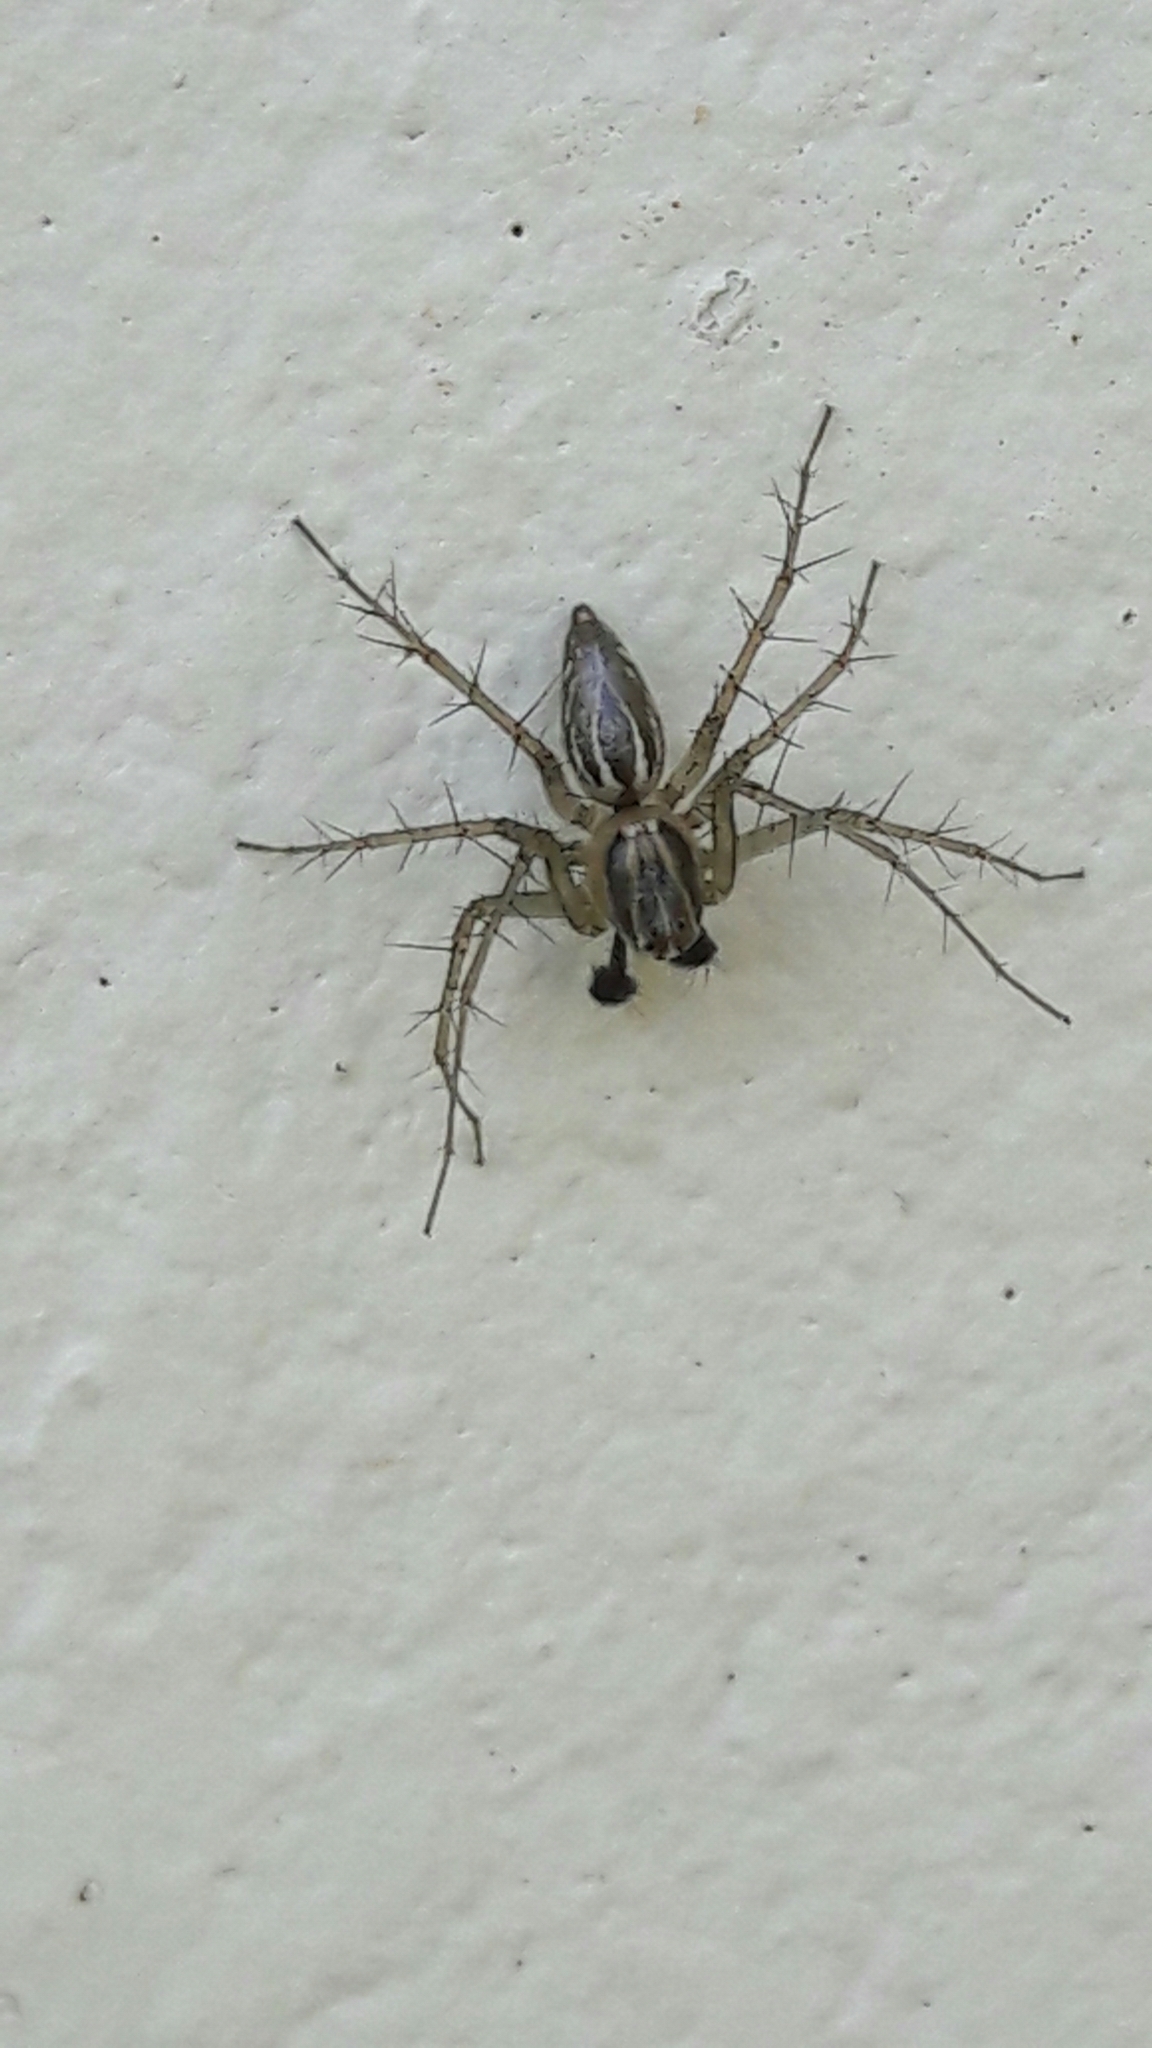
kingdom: Animalia
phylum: Arthropoda
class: Arachnida
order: Araneae
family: Oxyopidae
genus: Oxyopes
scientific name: Oxyopes salticus
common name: Lynx spiders
